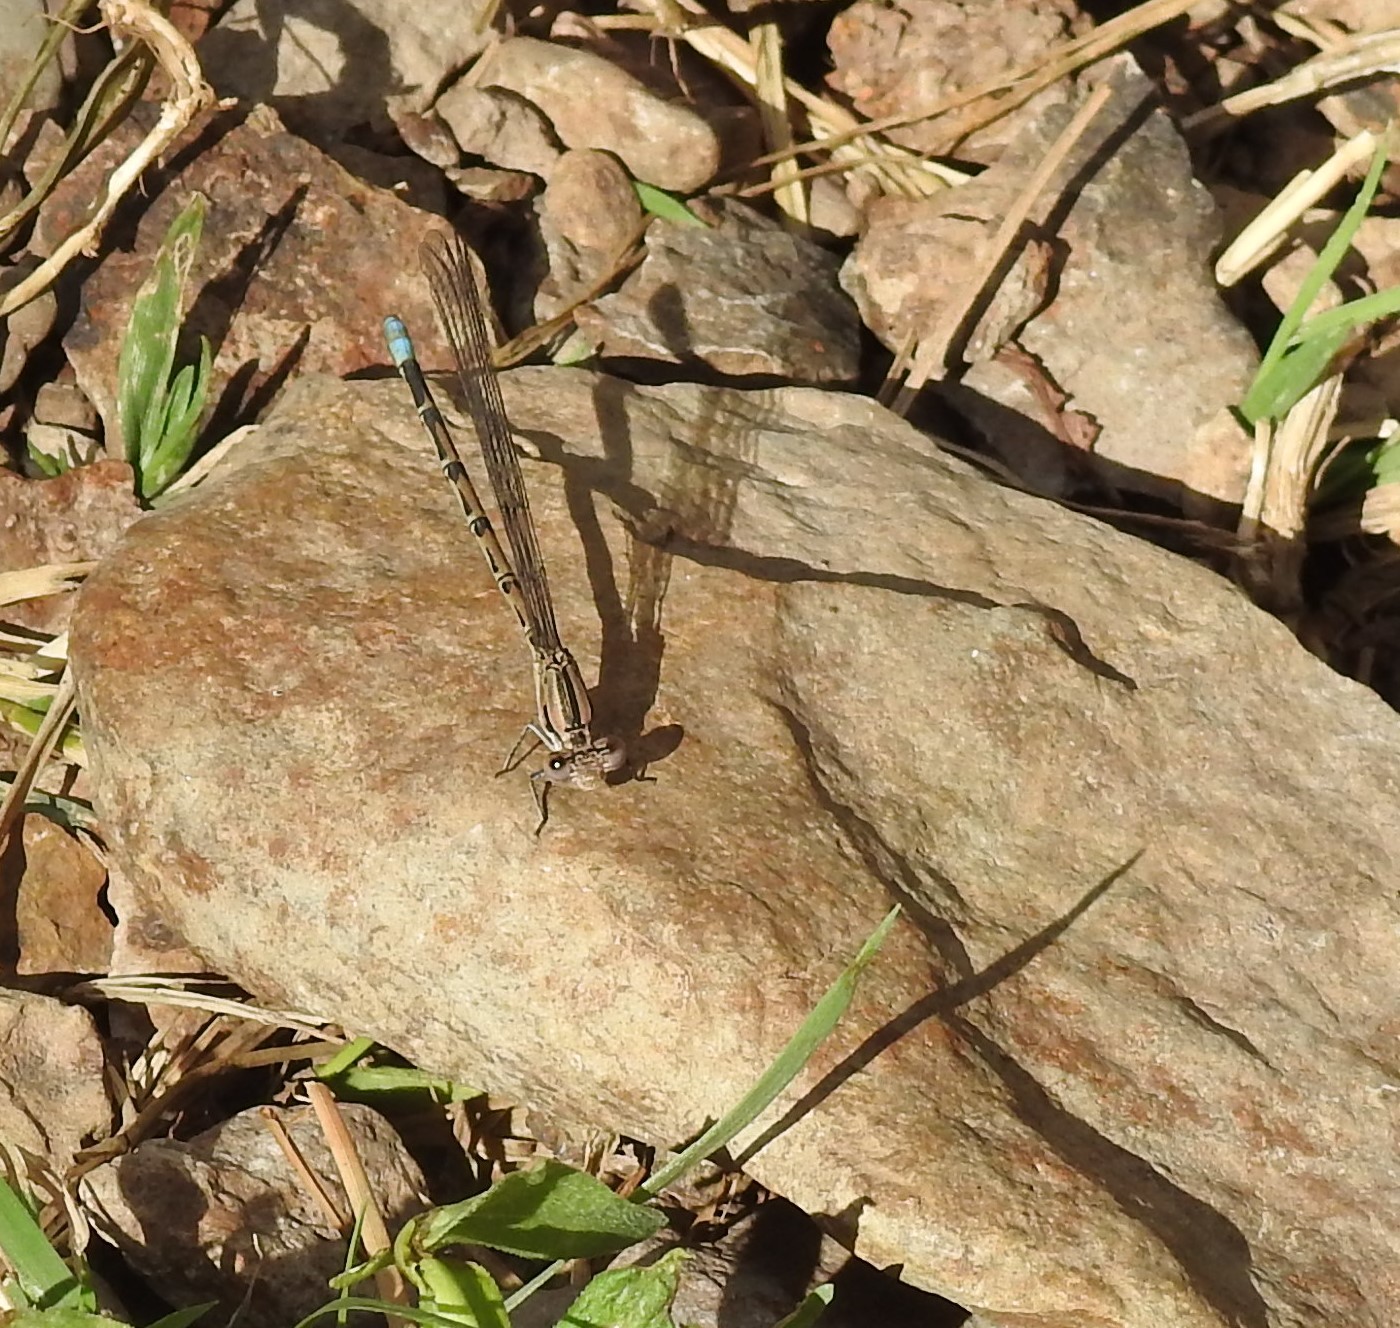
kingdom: Animalia
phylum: Arthropoda
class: Insecta
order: Odonata
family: Coenagrionidae
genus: Argia
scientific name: Argia funebris
